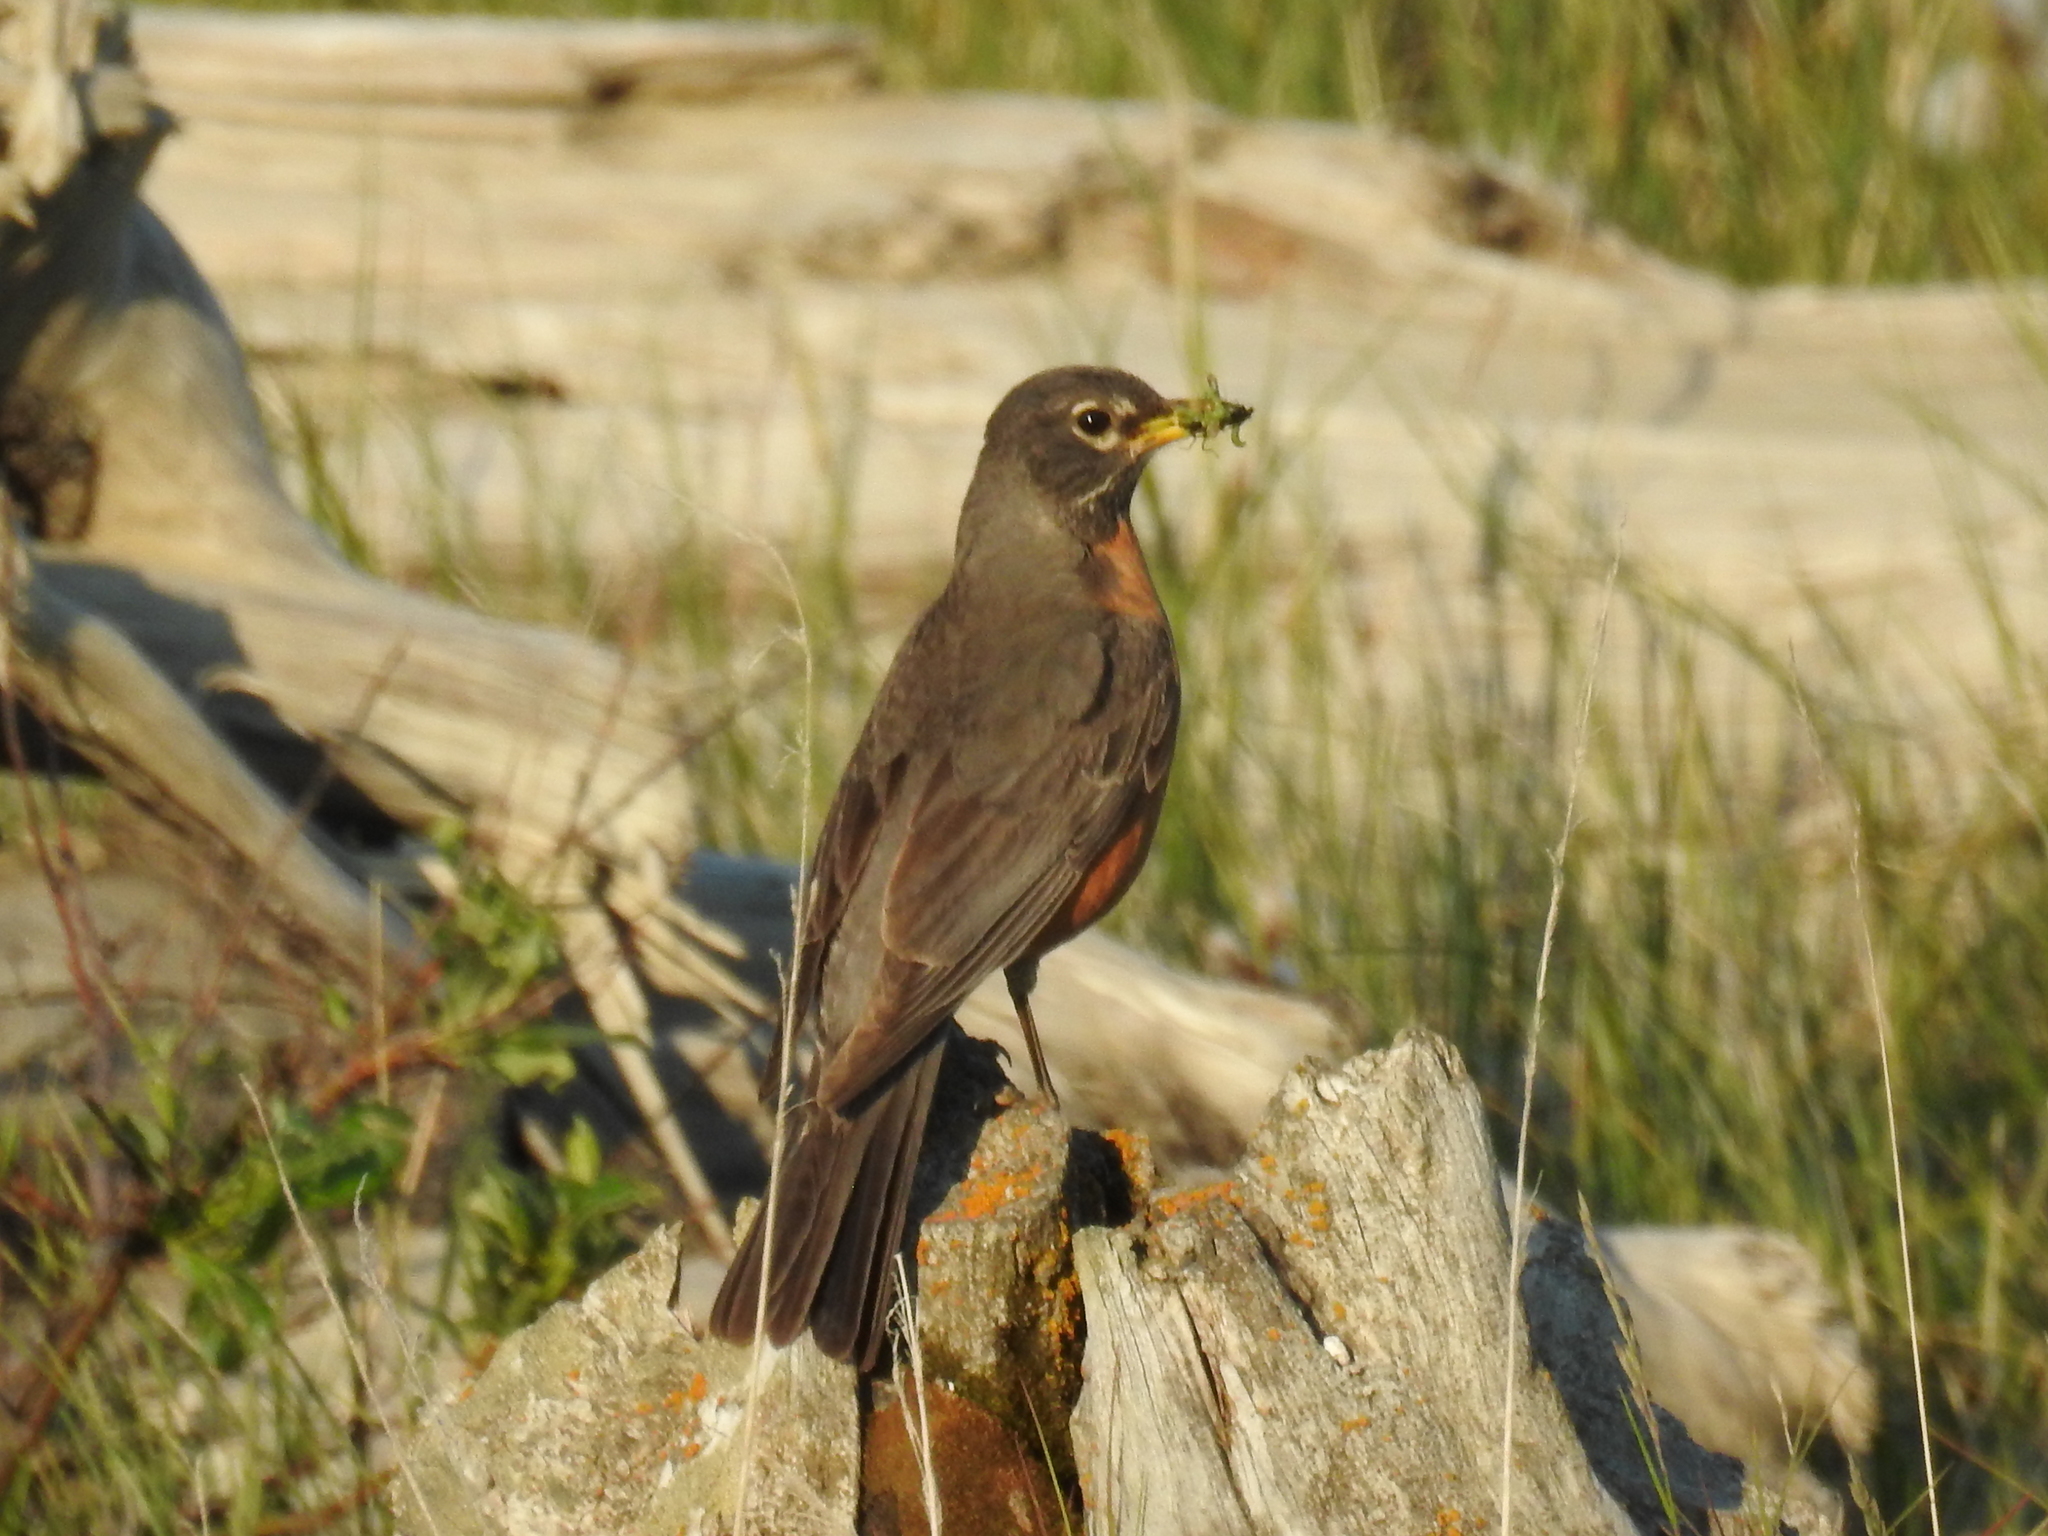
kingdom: Animalia
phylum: Chordata
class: Aves
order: Passeriformes
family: Turdidae
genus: Turdus
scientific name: Turdus migratorius
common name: American robin
